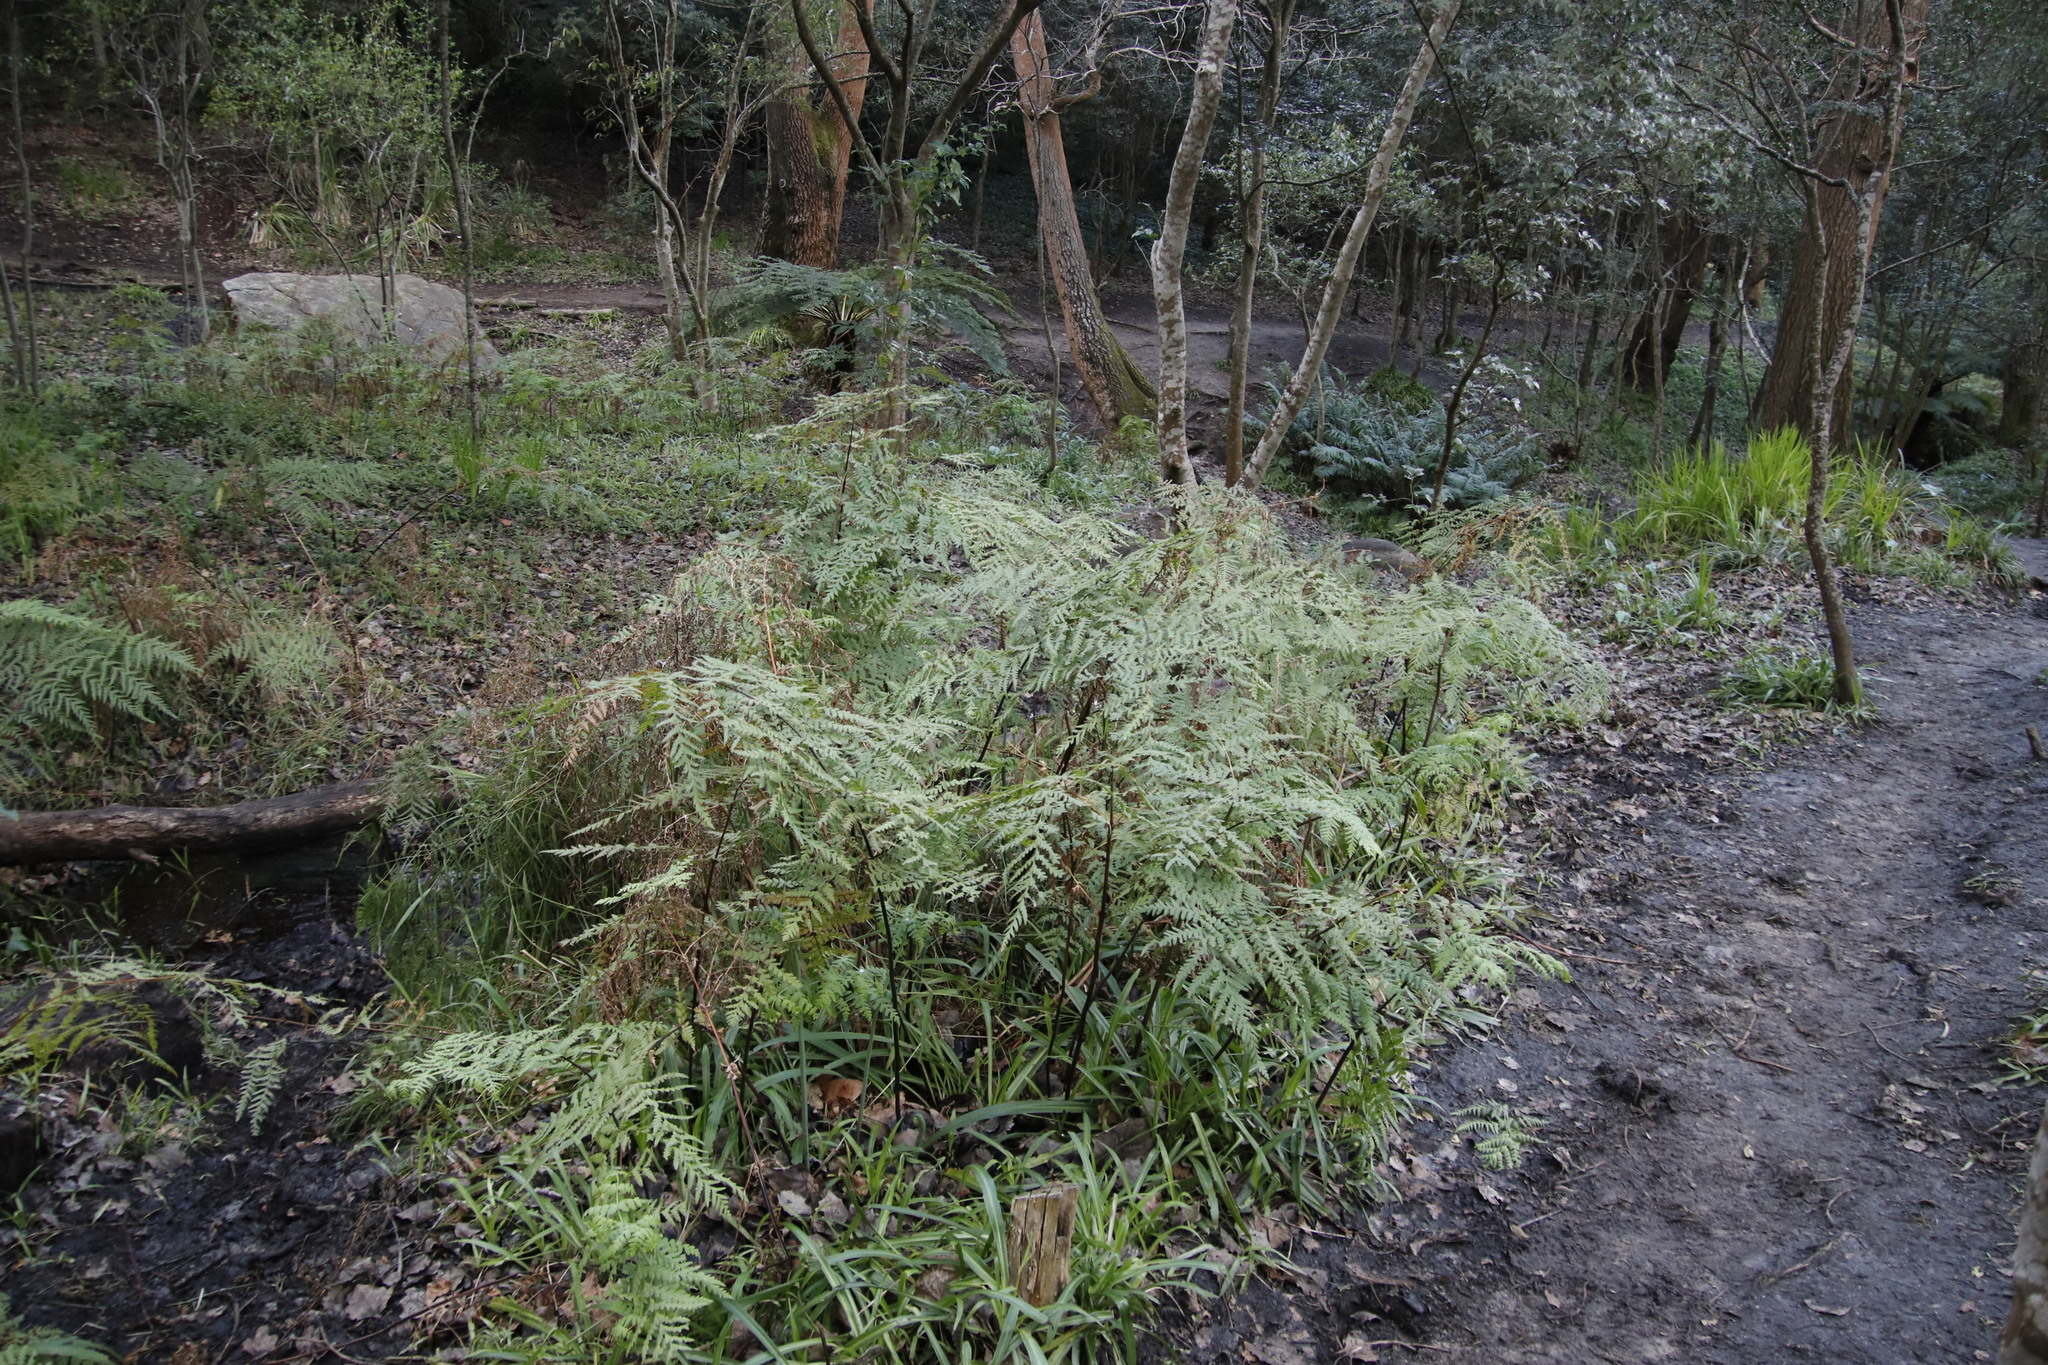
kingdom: Plantae
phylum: Tracheophyta
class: Polypodiopsida
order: Polypodiales
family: Dennstaedtiaceae
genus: Histiopteris
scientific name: Histiopteris incisa
